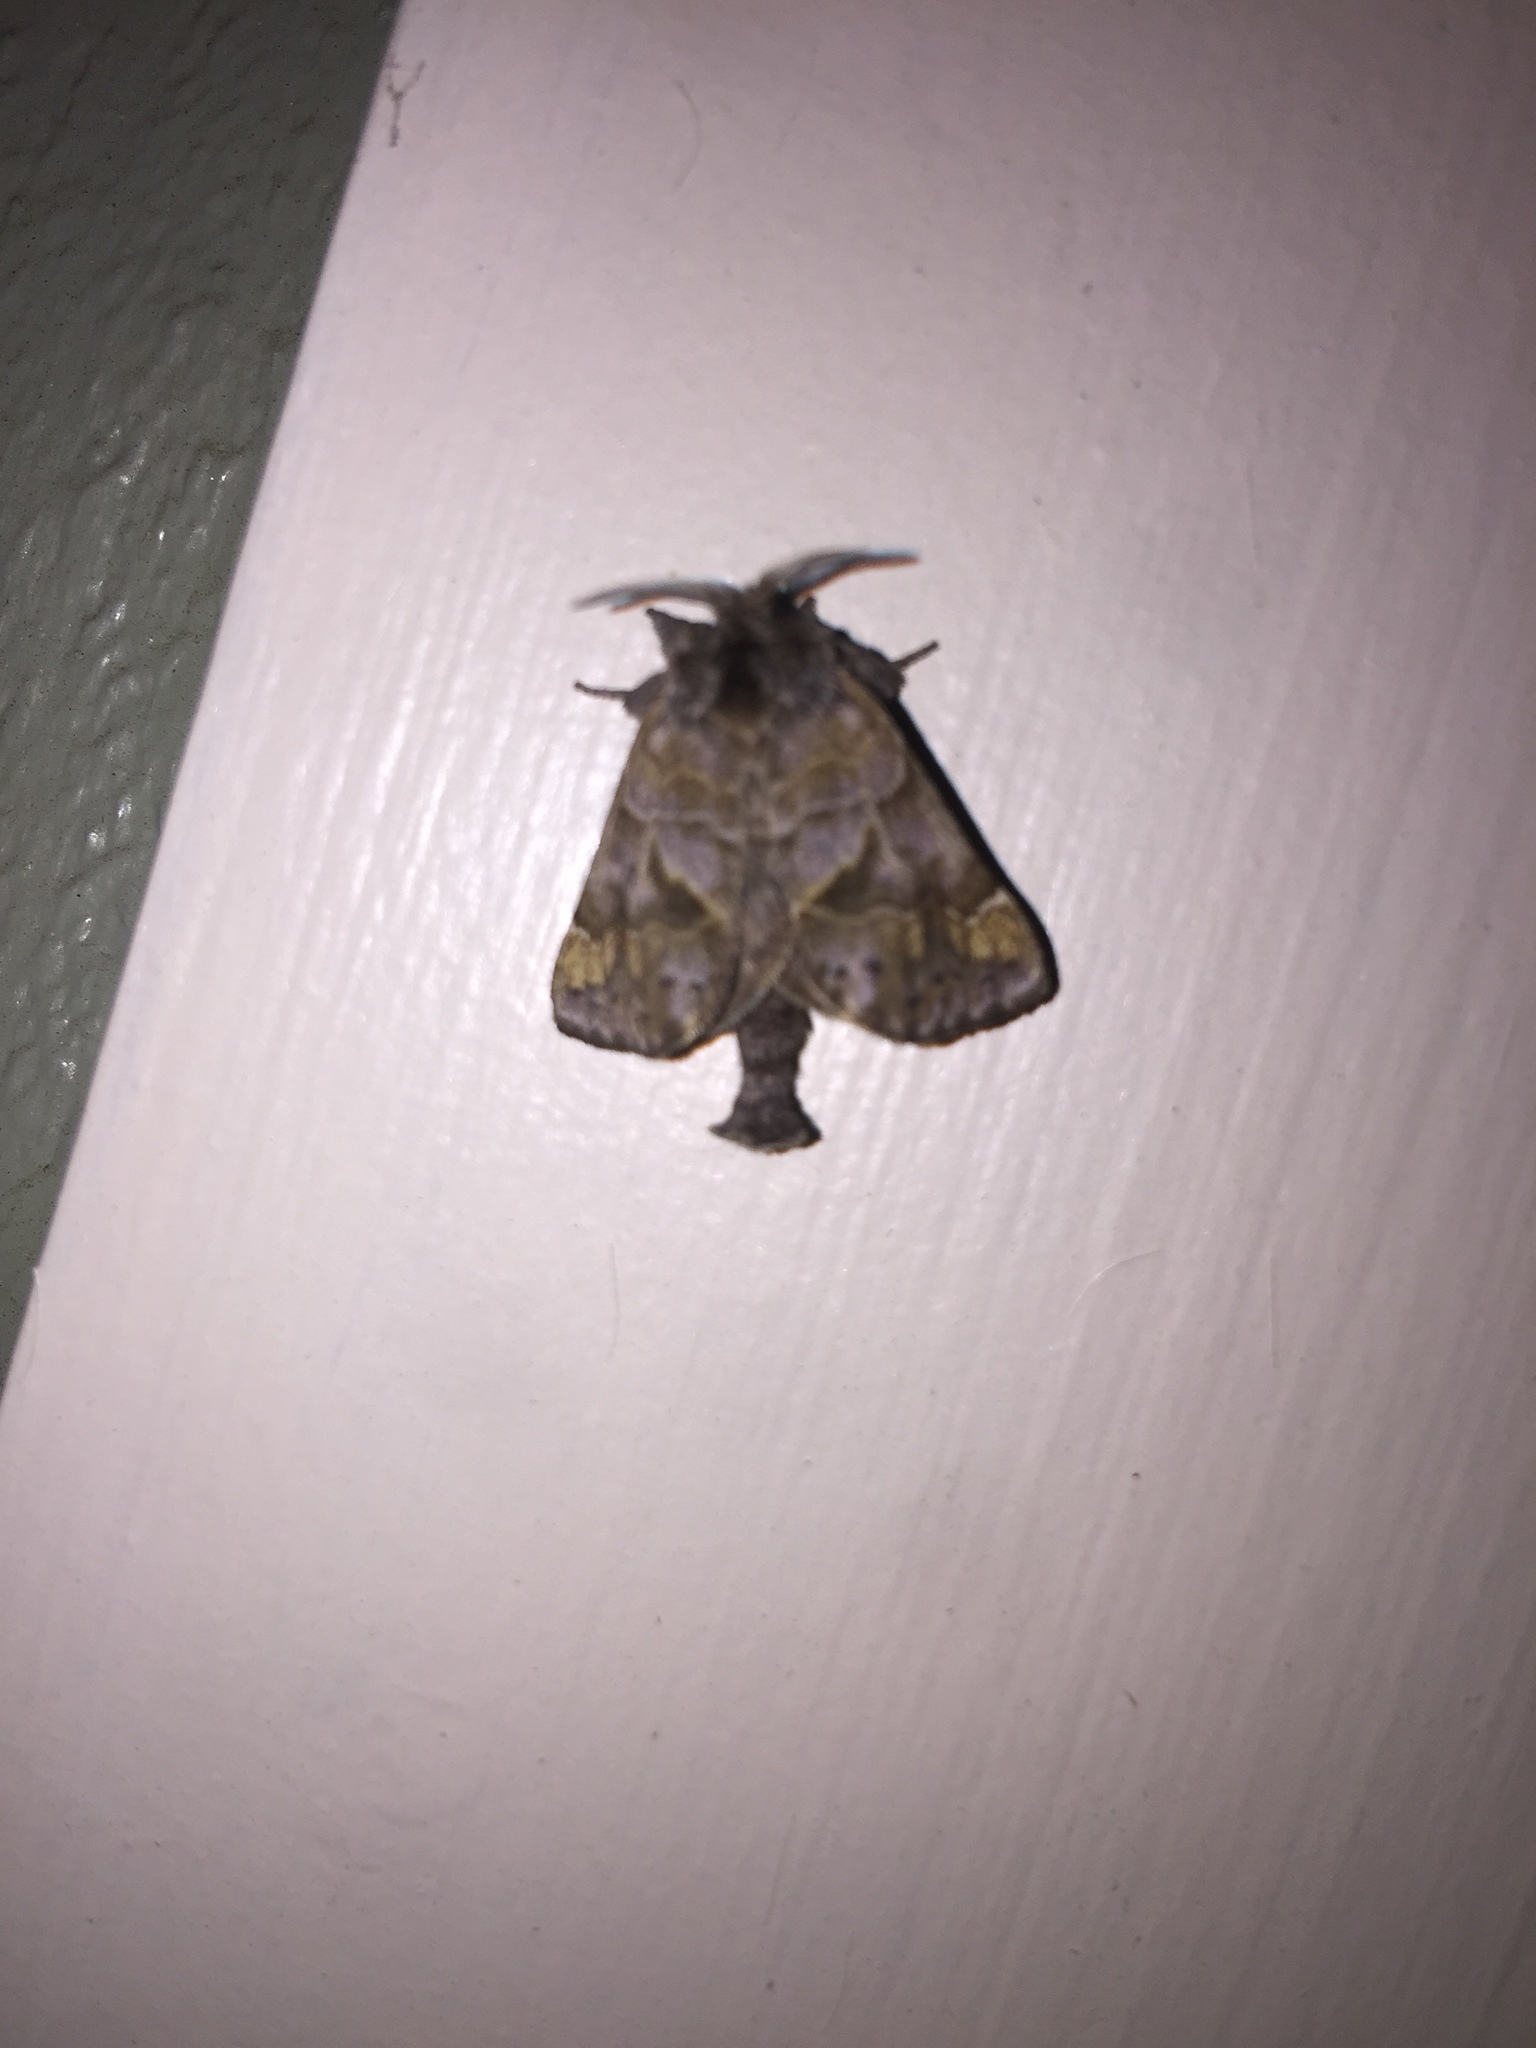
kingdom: Animalia
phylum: Arthropoda
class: Insecta
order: Lepidoptera
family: Notodontidae
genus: Clostera
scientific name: Clostera strigosa
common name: Striped chocolate-tip moth
